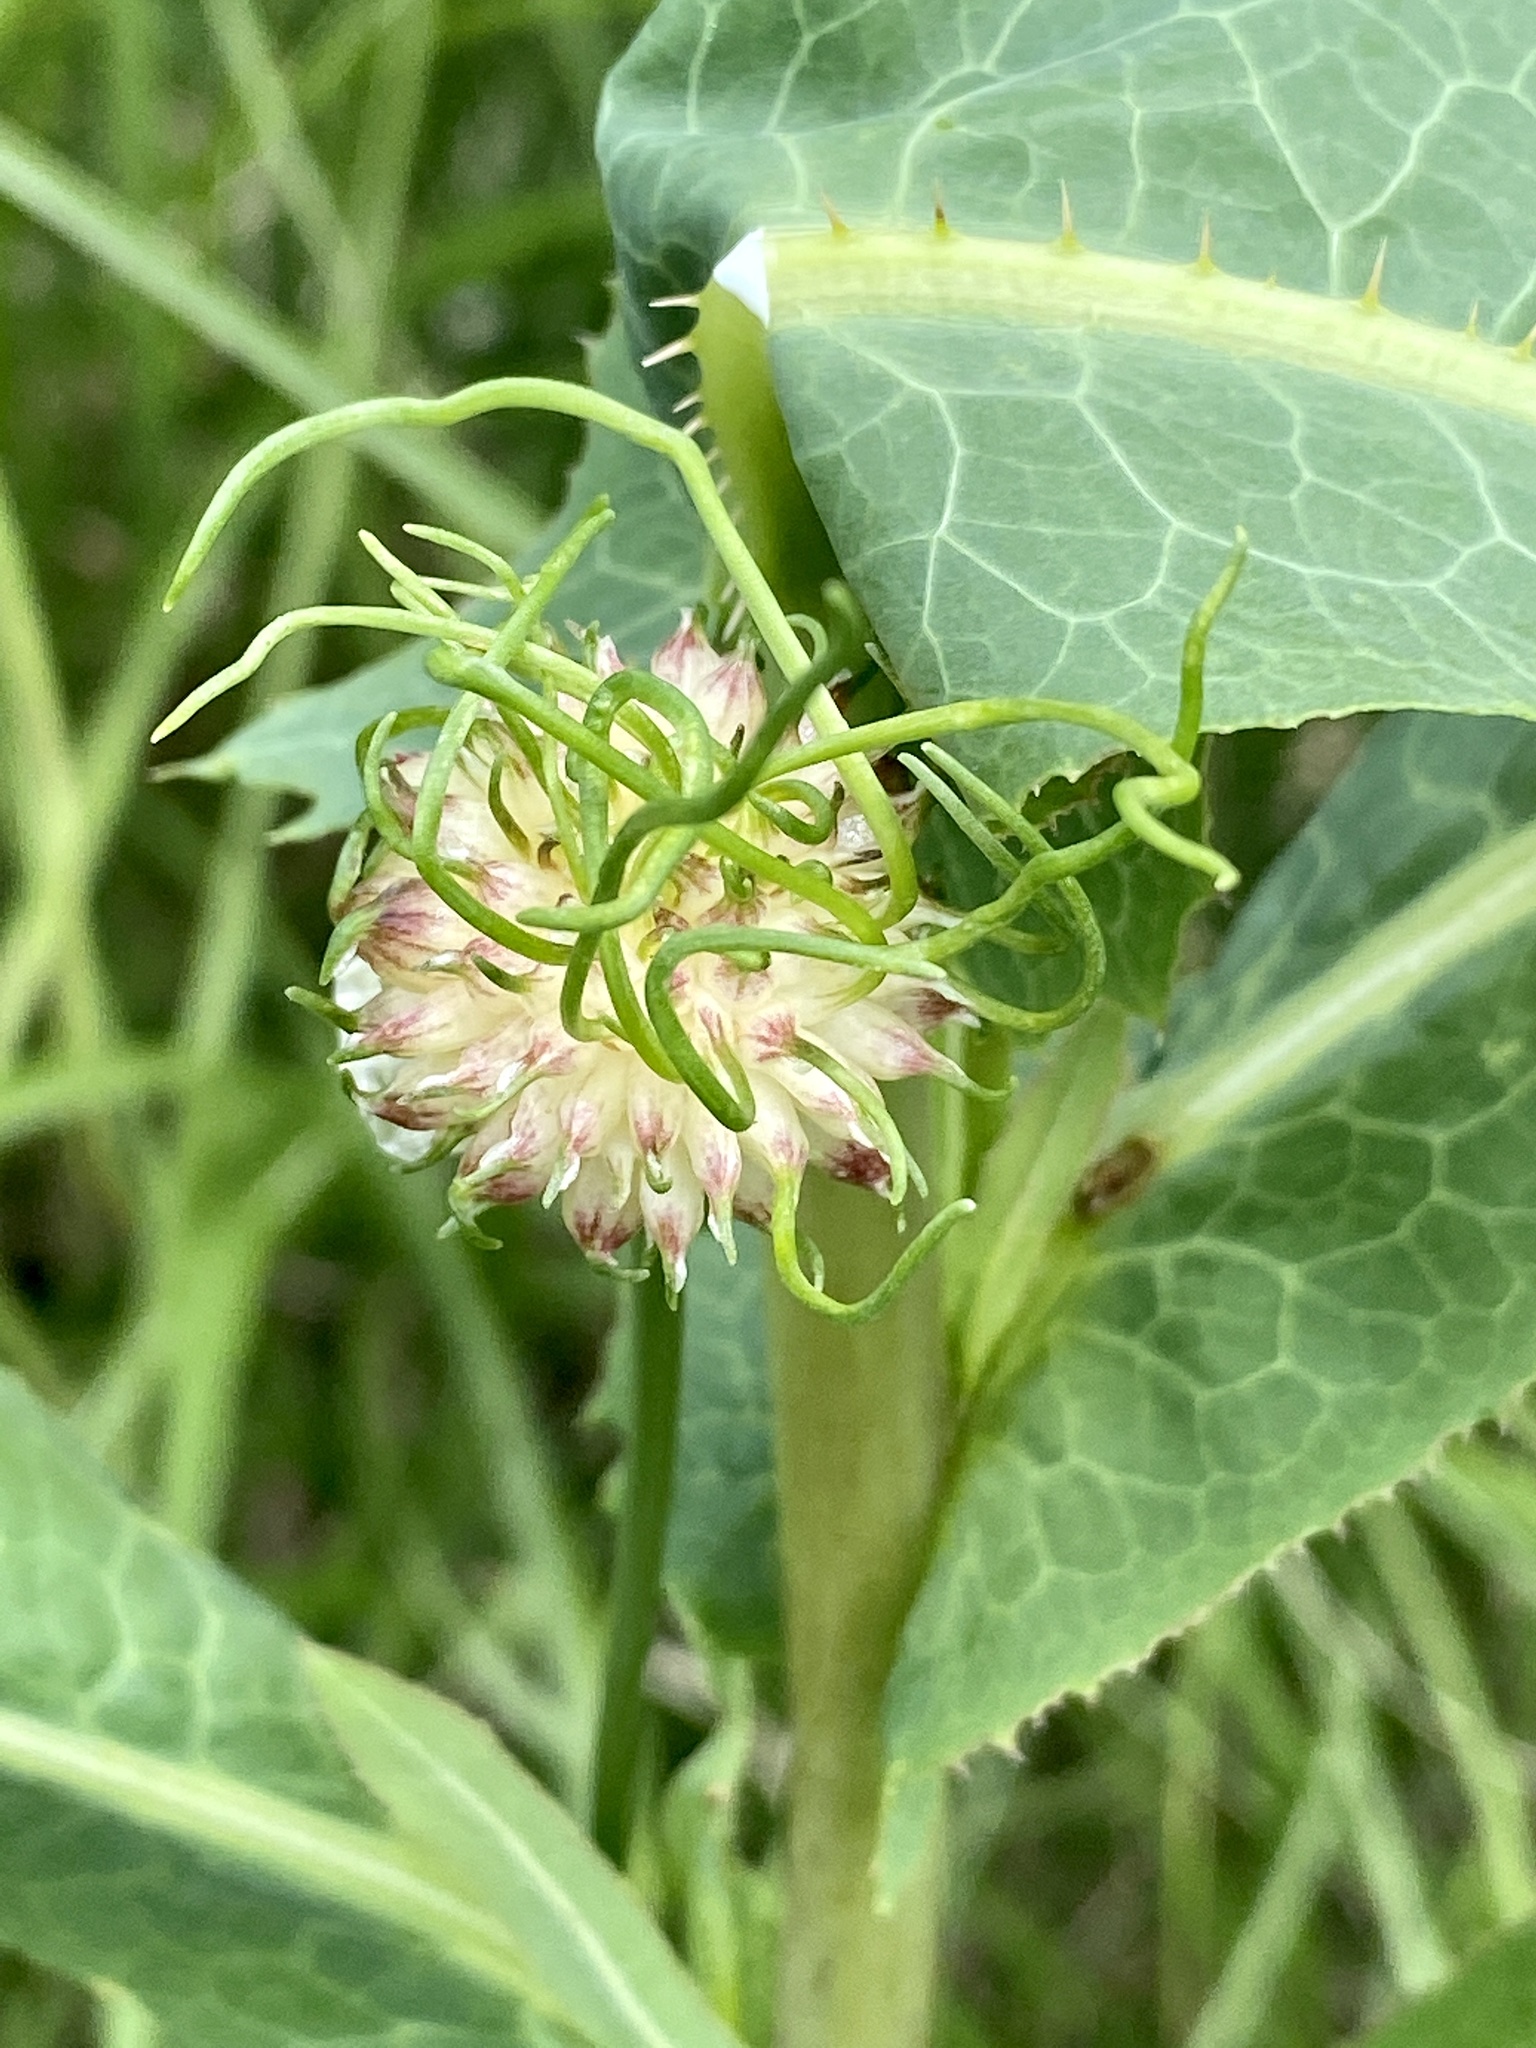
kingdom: Plantae
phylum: Tracheophyta
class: Liliopsida
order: Asparagales
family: Amaryllidaceae
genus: Allium
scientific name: Allium vineale
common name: Crow garlic
